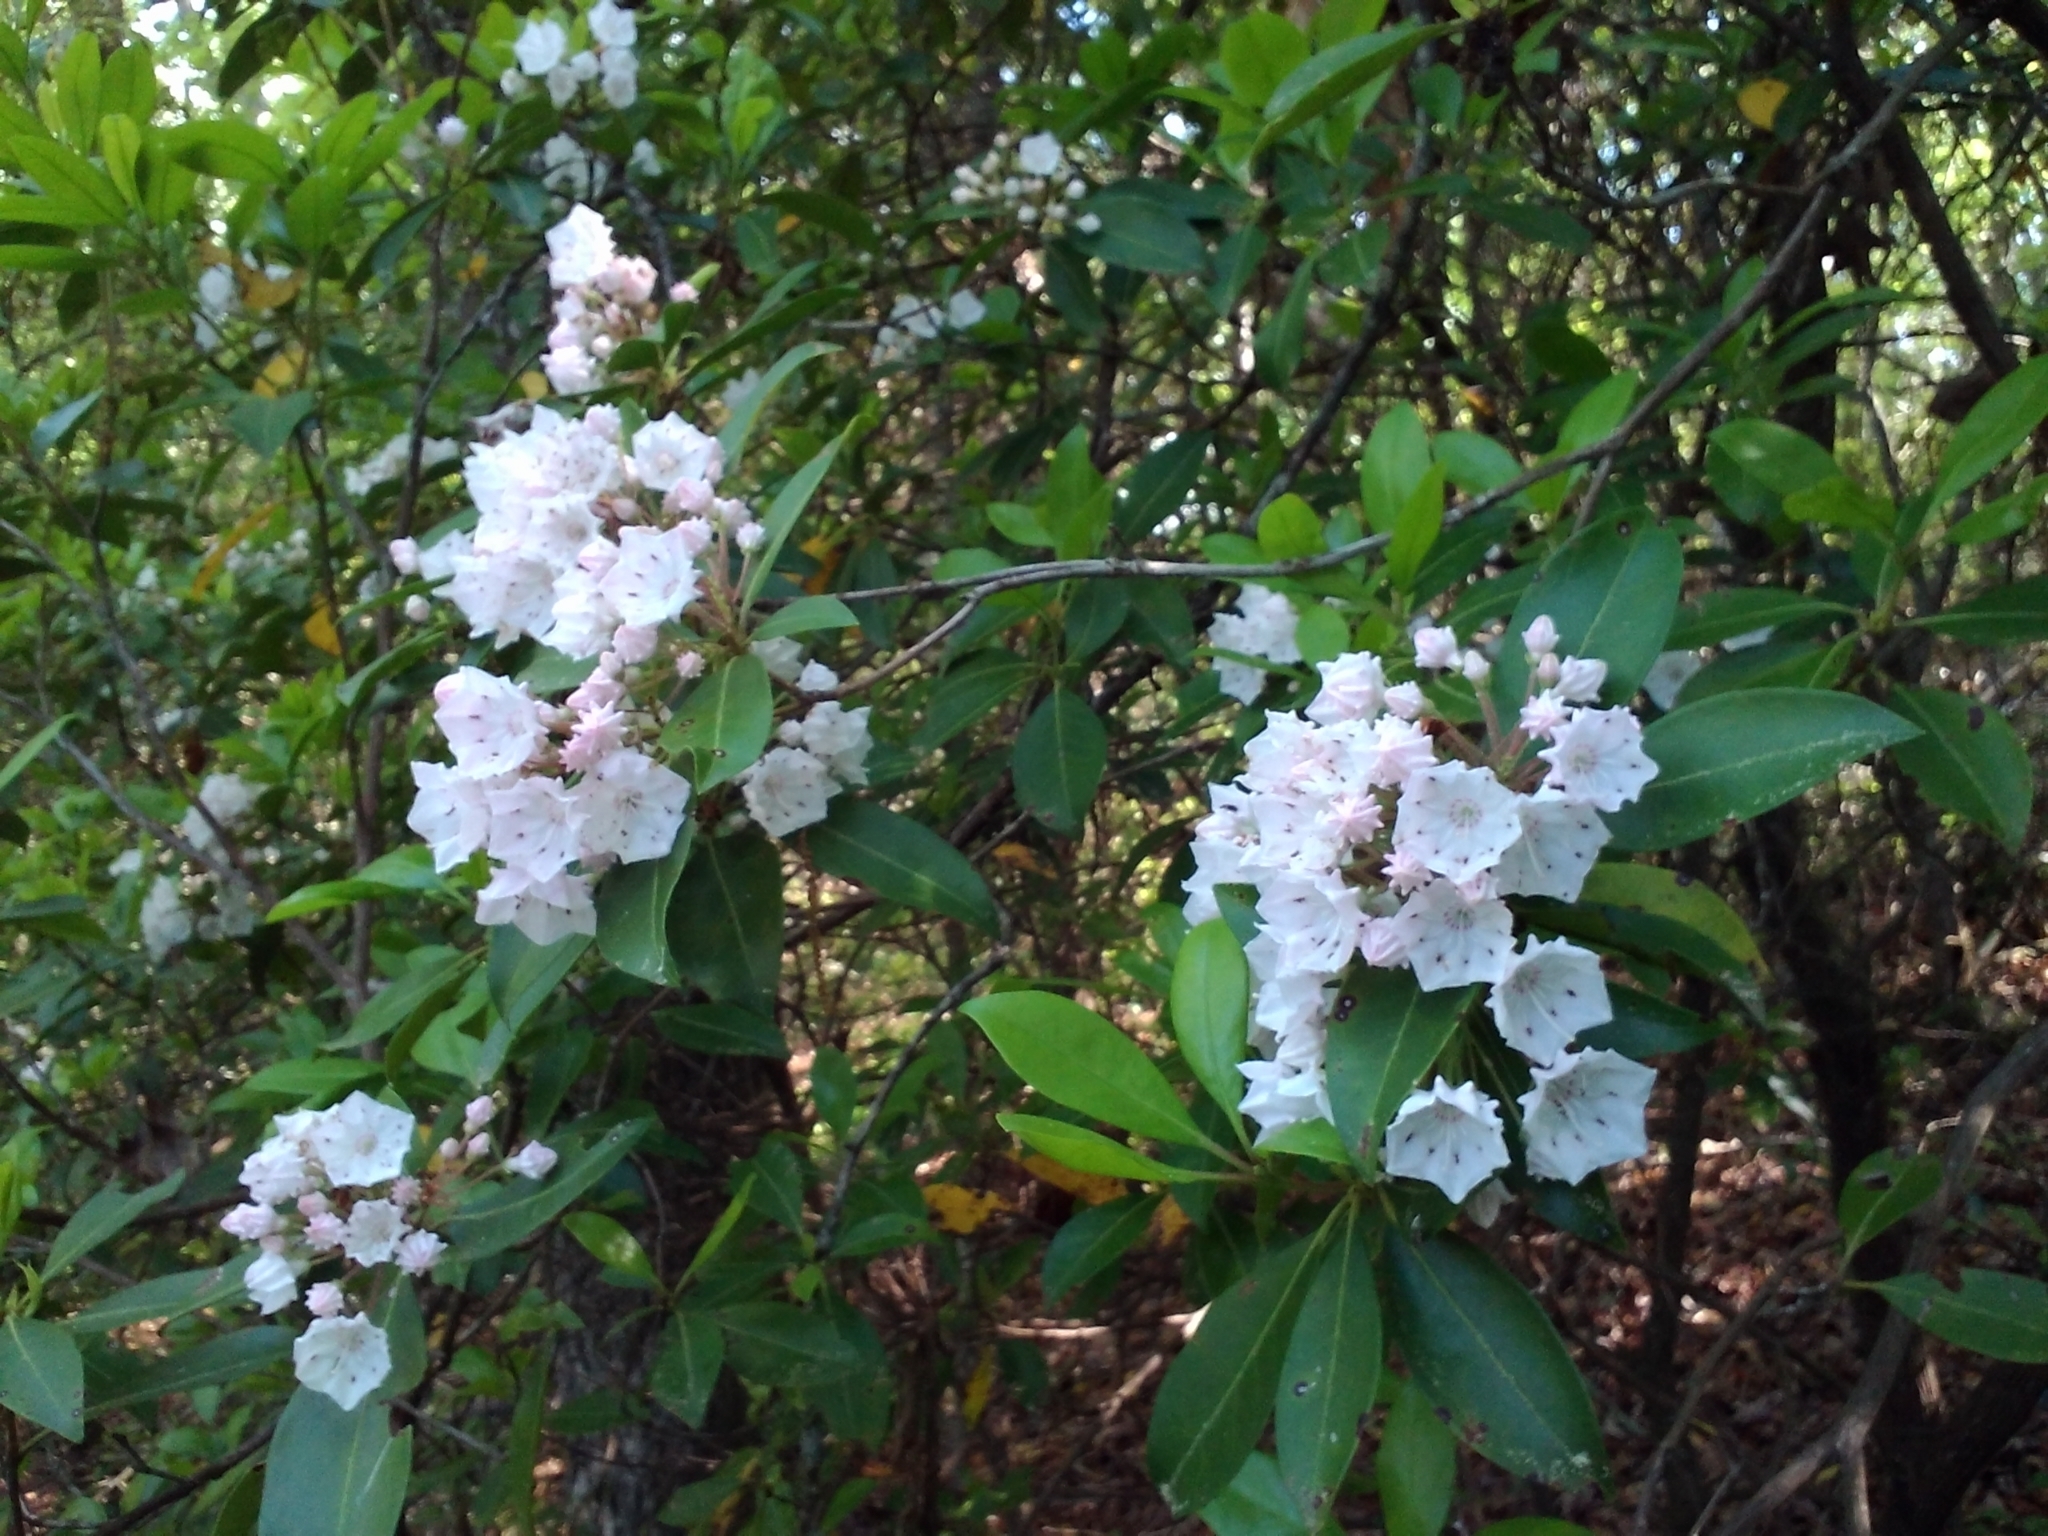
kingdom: Plantae
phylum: Tracheophyta
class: Magnoliopsida
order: Ericales
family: Ericaceae
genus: Kalmia
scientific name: Kalmia latifolia
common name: Mountain-laurel
